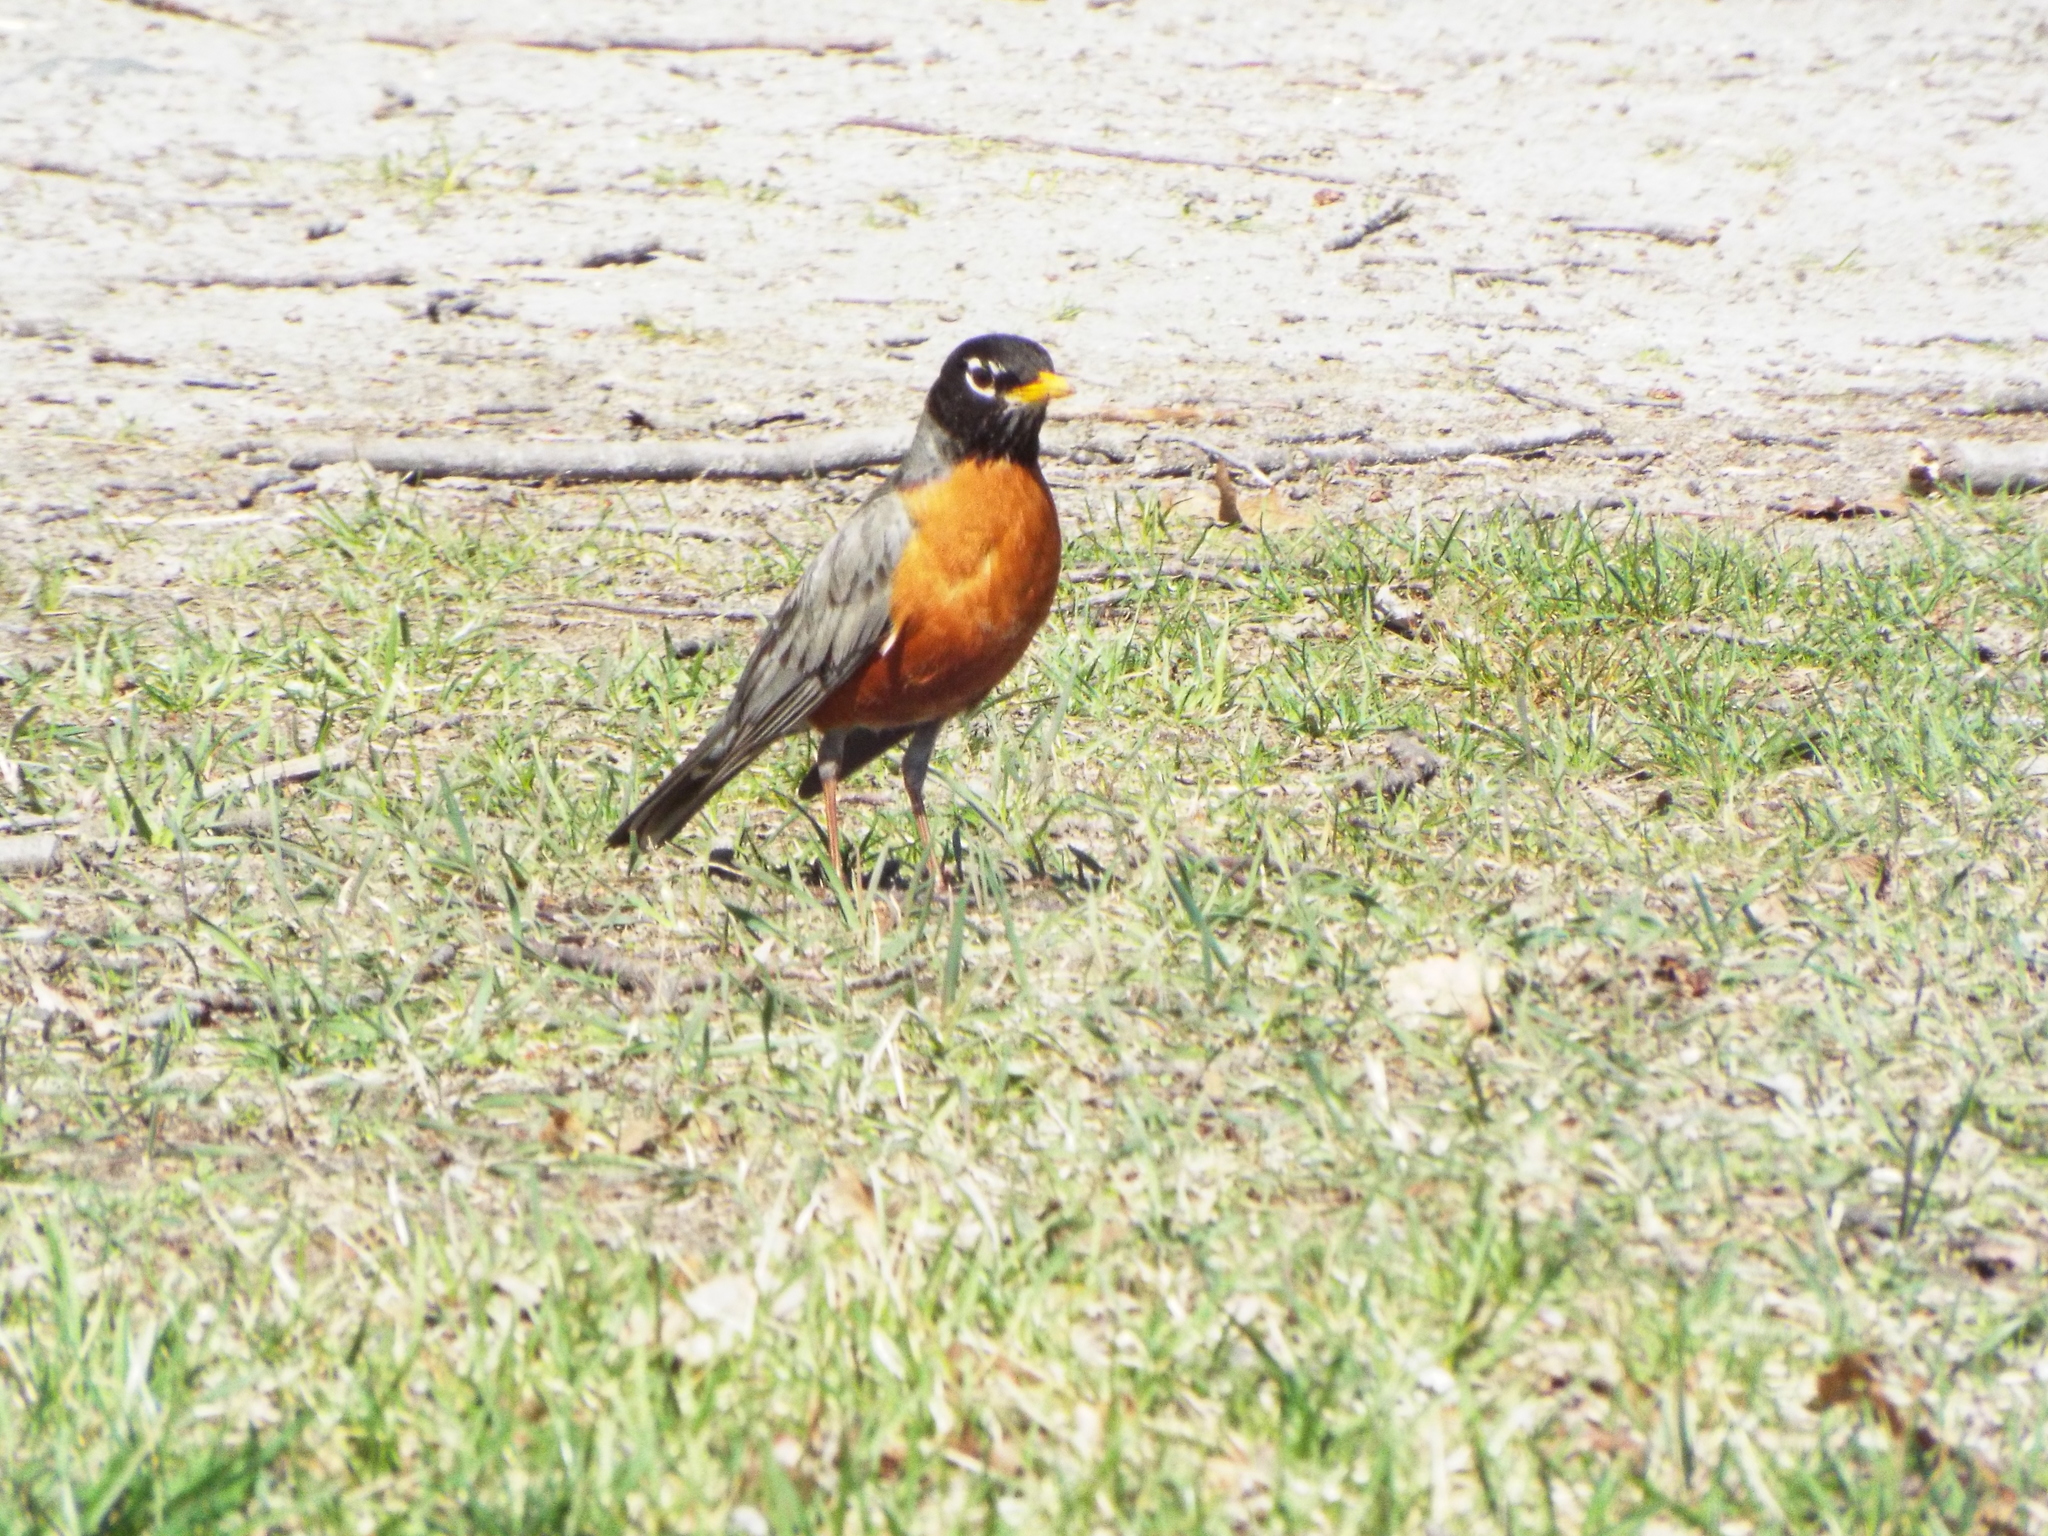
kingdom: Animalia
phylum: Chordata
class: Aves
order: Passeriformes
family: Turdidae
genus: Turdus
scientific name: Turdus migratorius
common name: American robin
